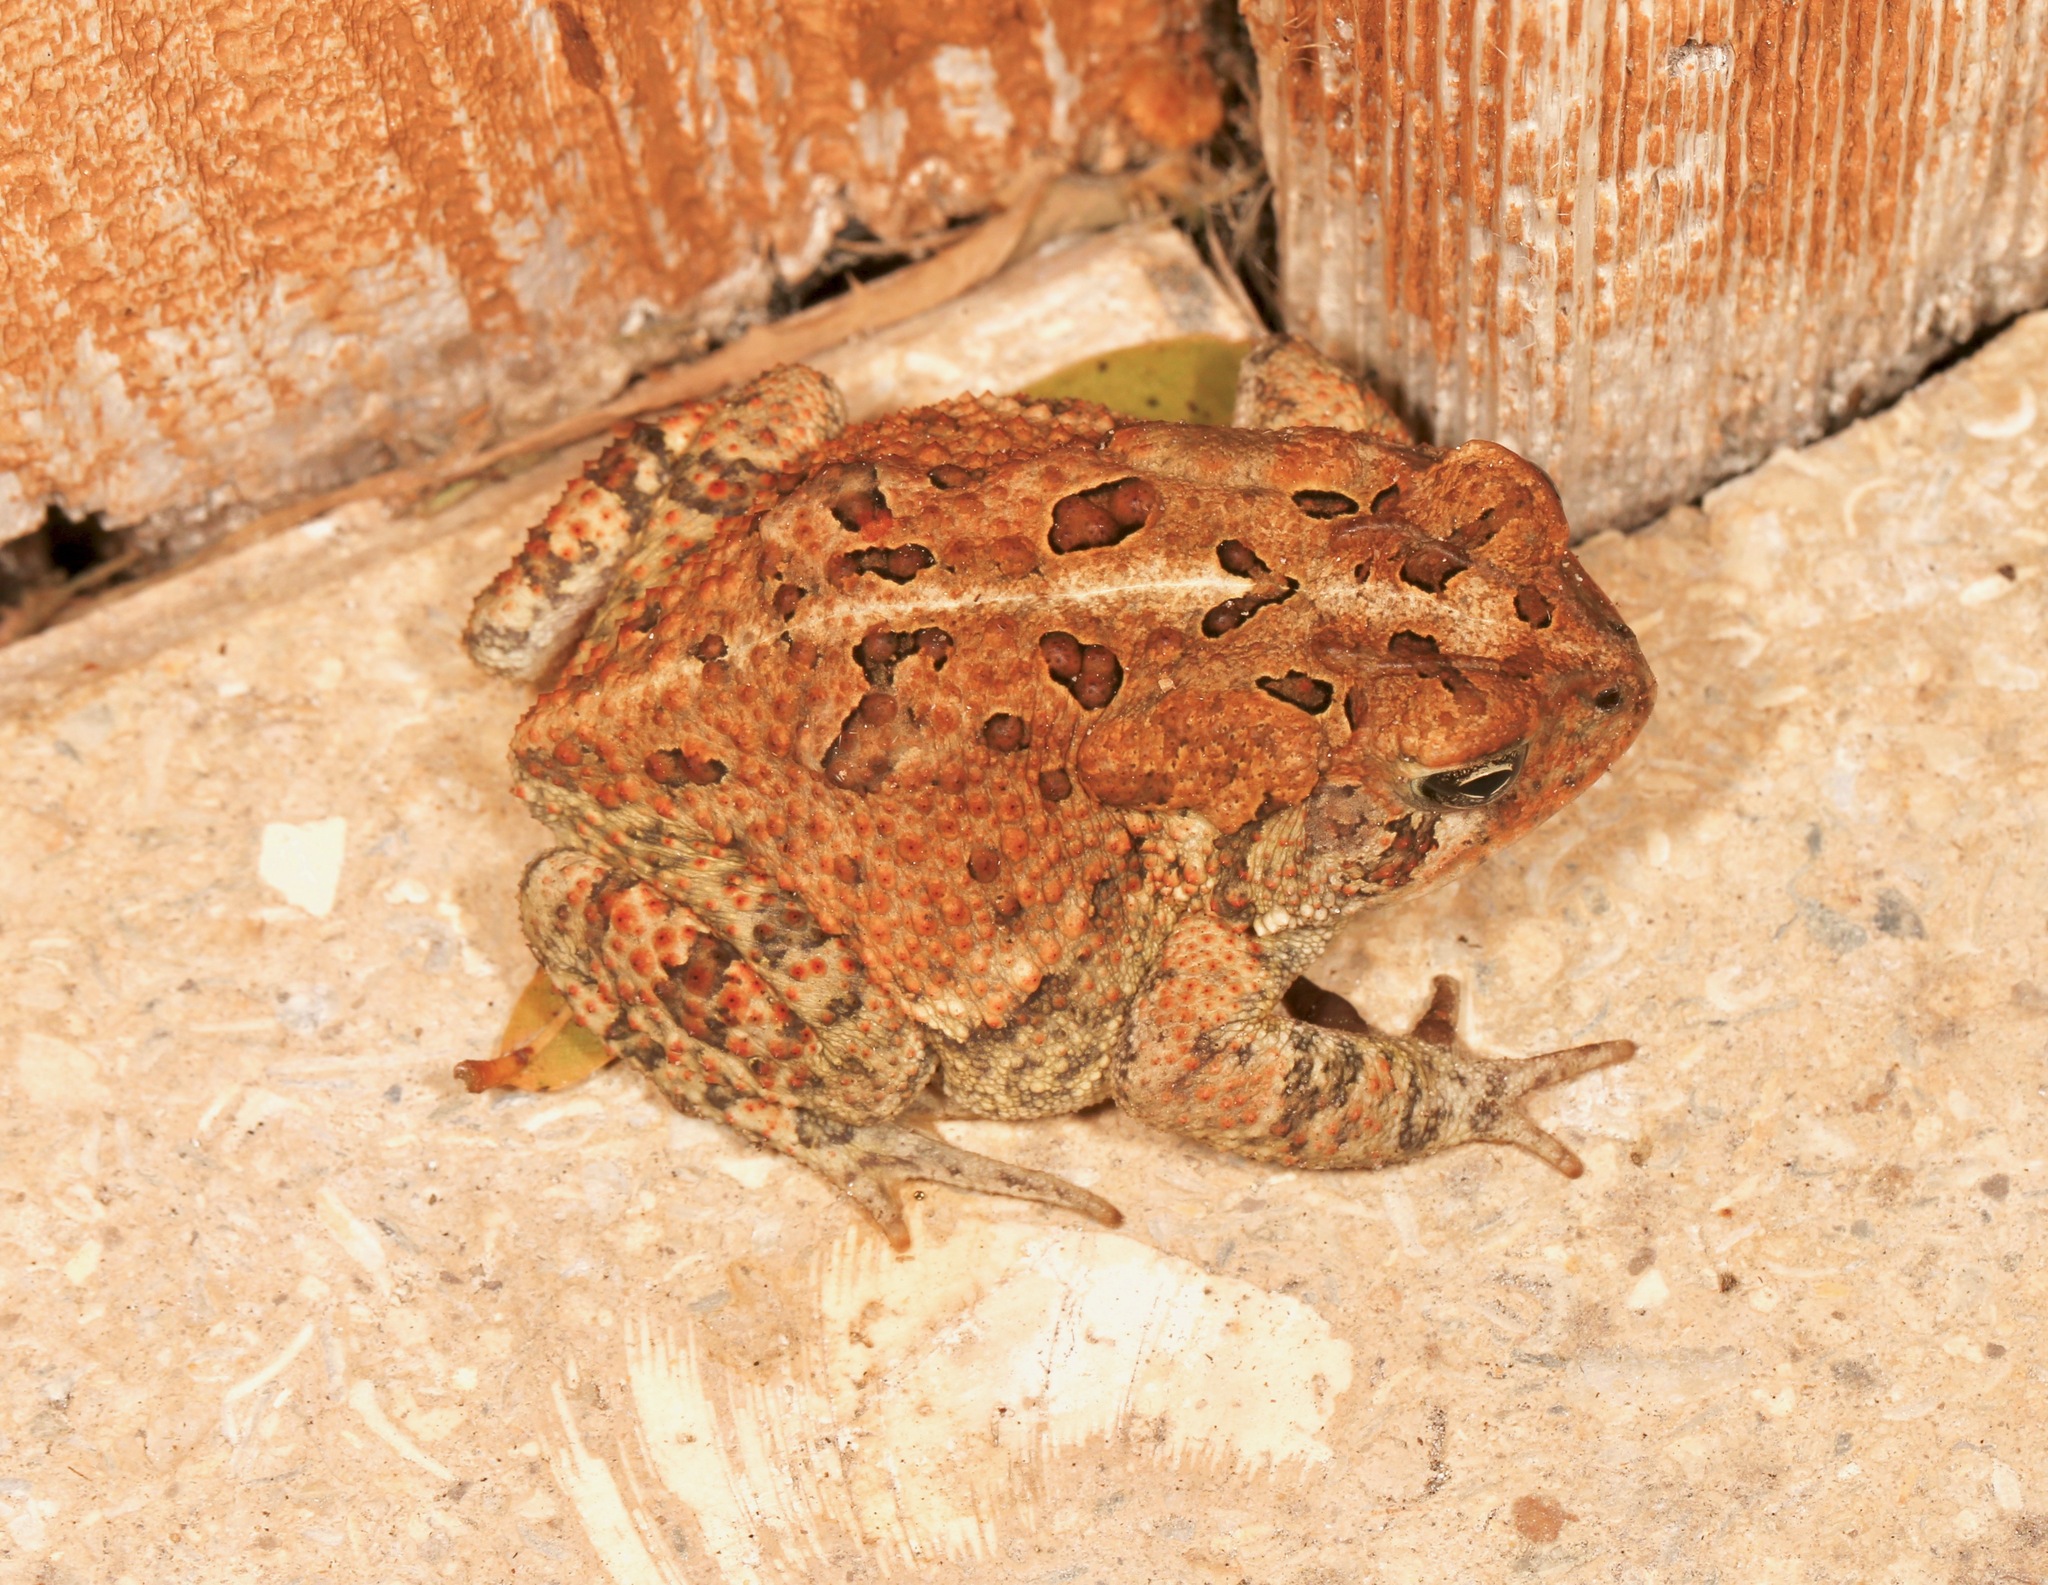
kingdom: Animalia
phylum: Chordata
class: Amphibia
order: Anura
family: Bufonidae
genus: Anaxyrus
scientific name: Anaxyrus terrestris
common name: Southern toad
